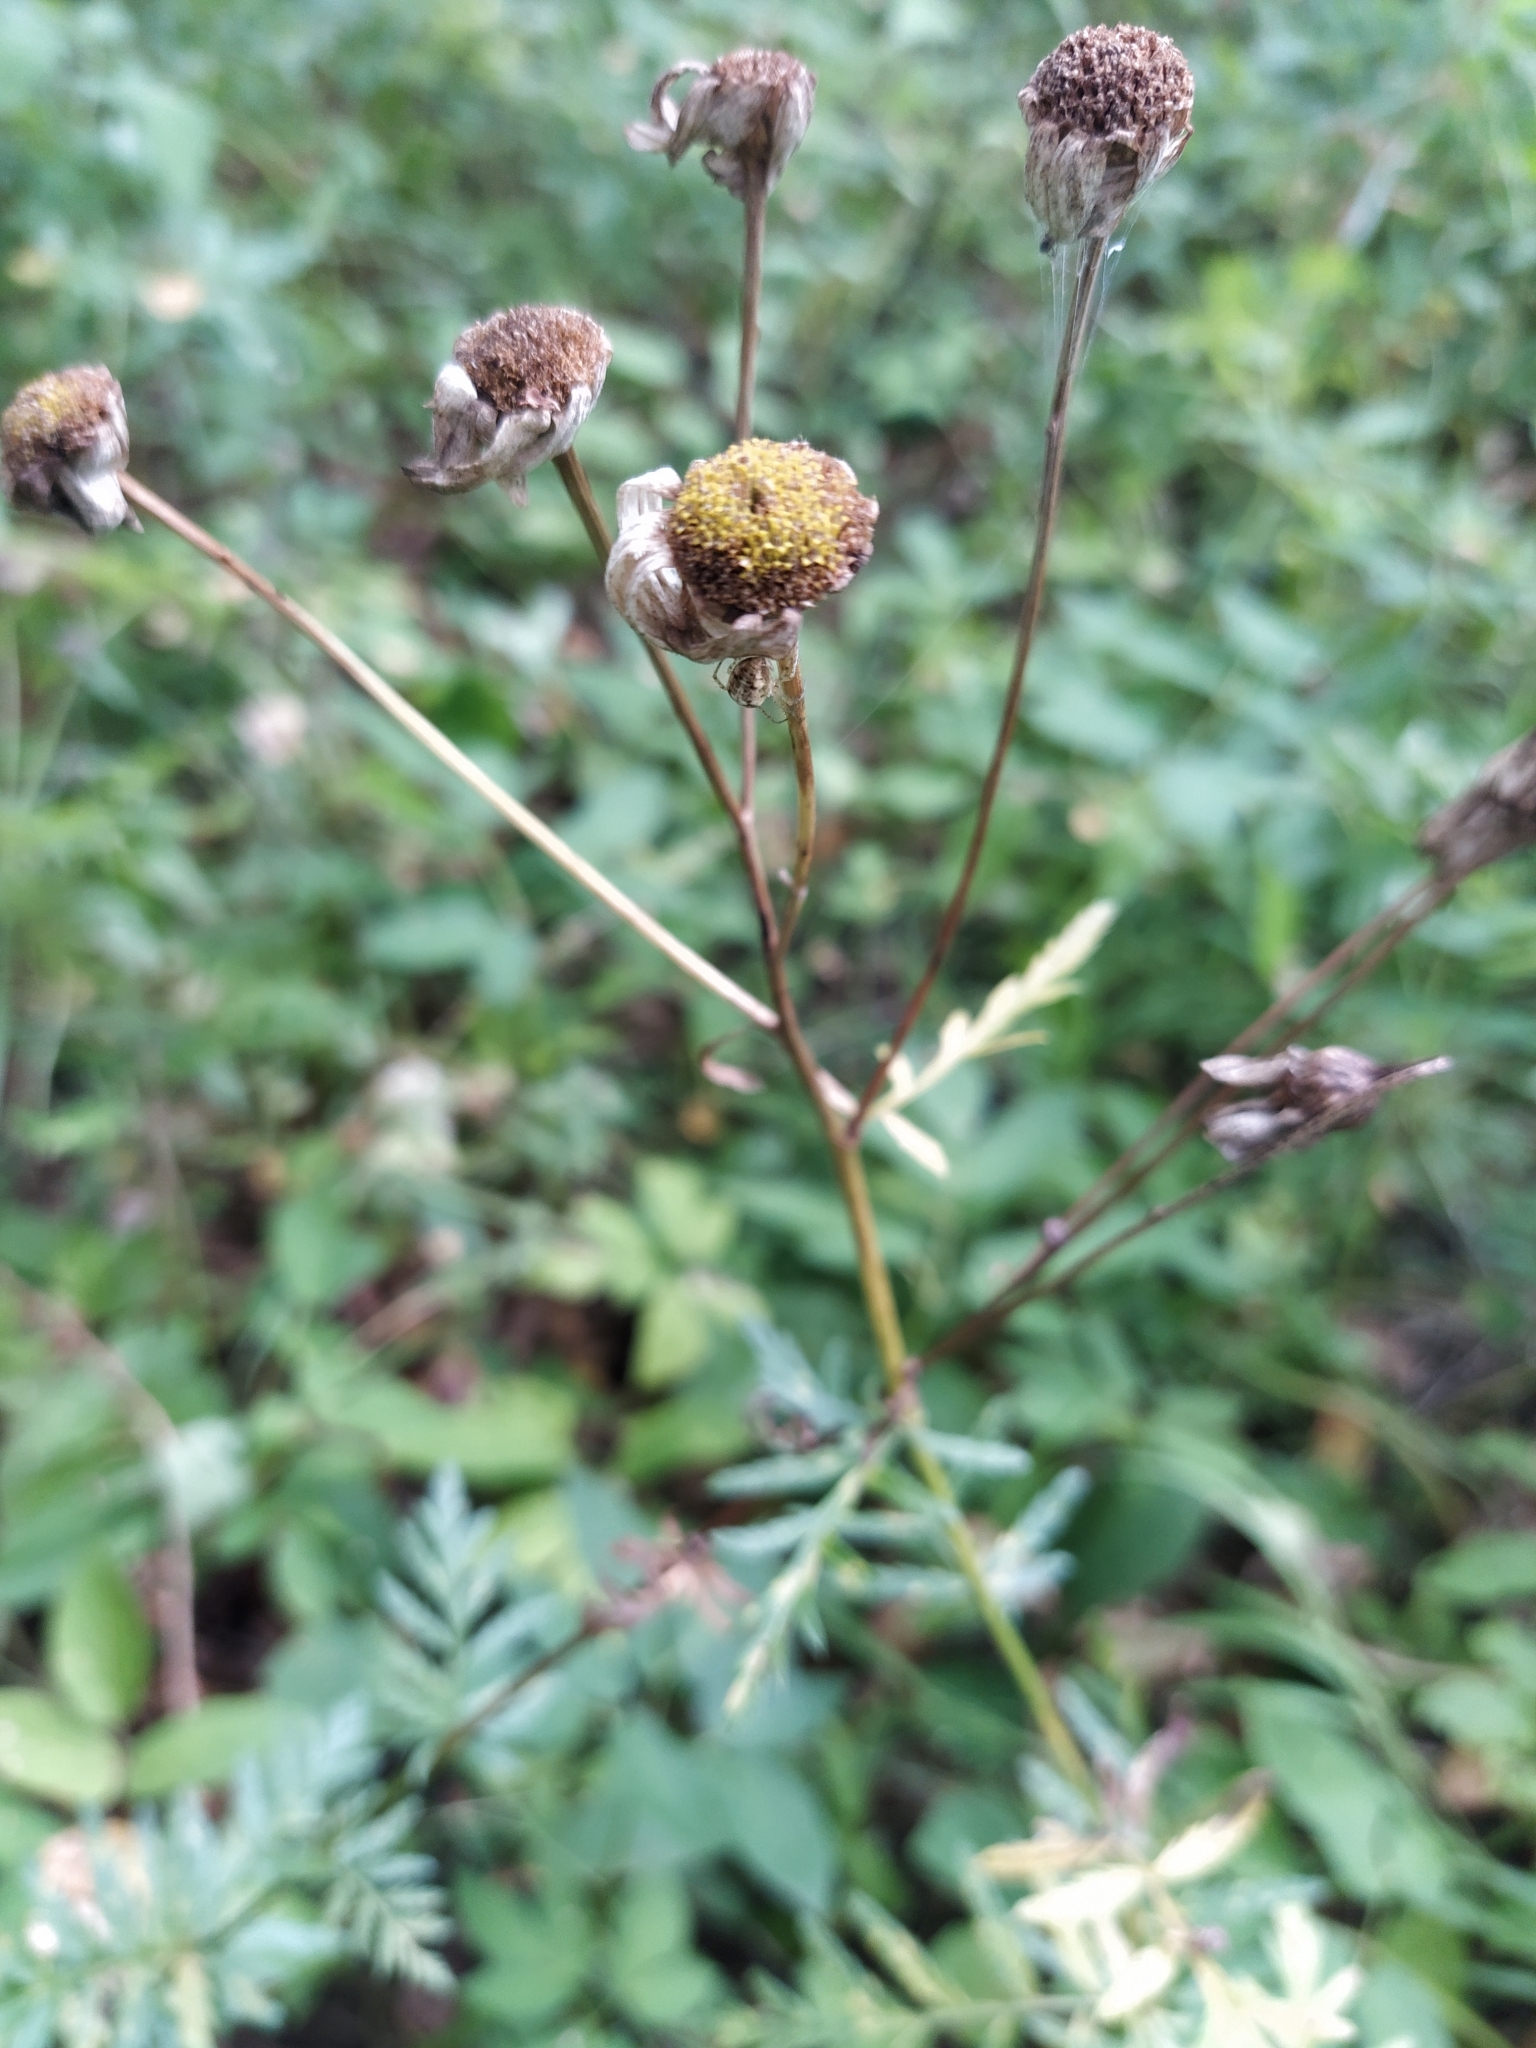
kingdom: Plantae
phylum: Tracheophyta
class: Magnoliopsida
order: Asterales
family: Asteraceae
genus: Tanacetum
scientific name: Tanacetum corymbosum
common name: Scentless feverfew
